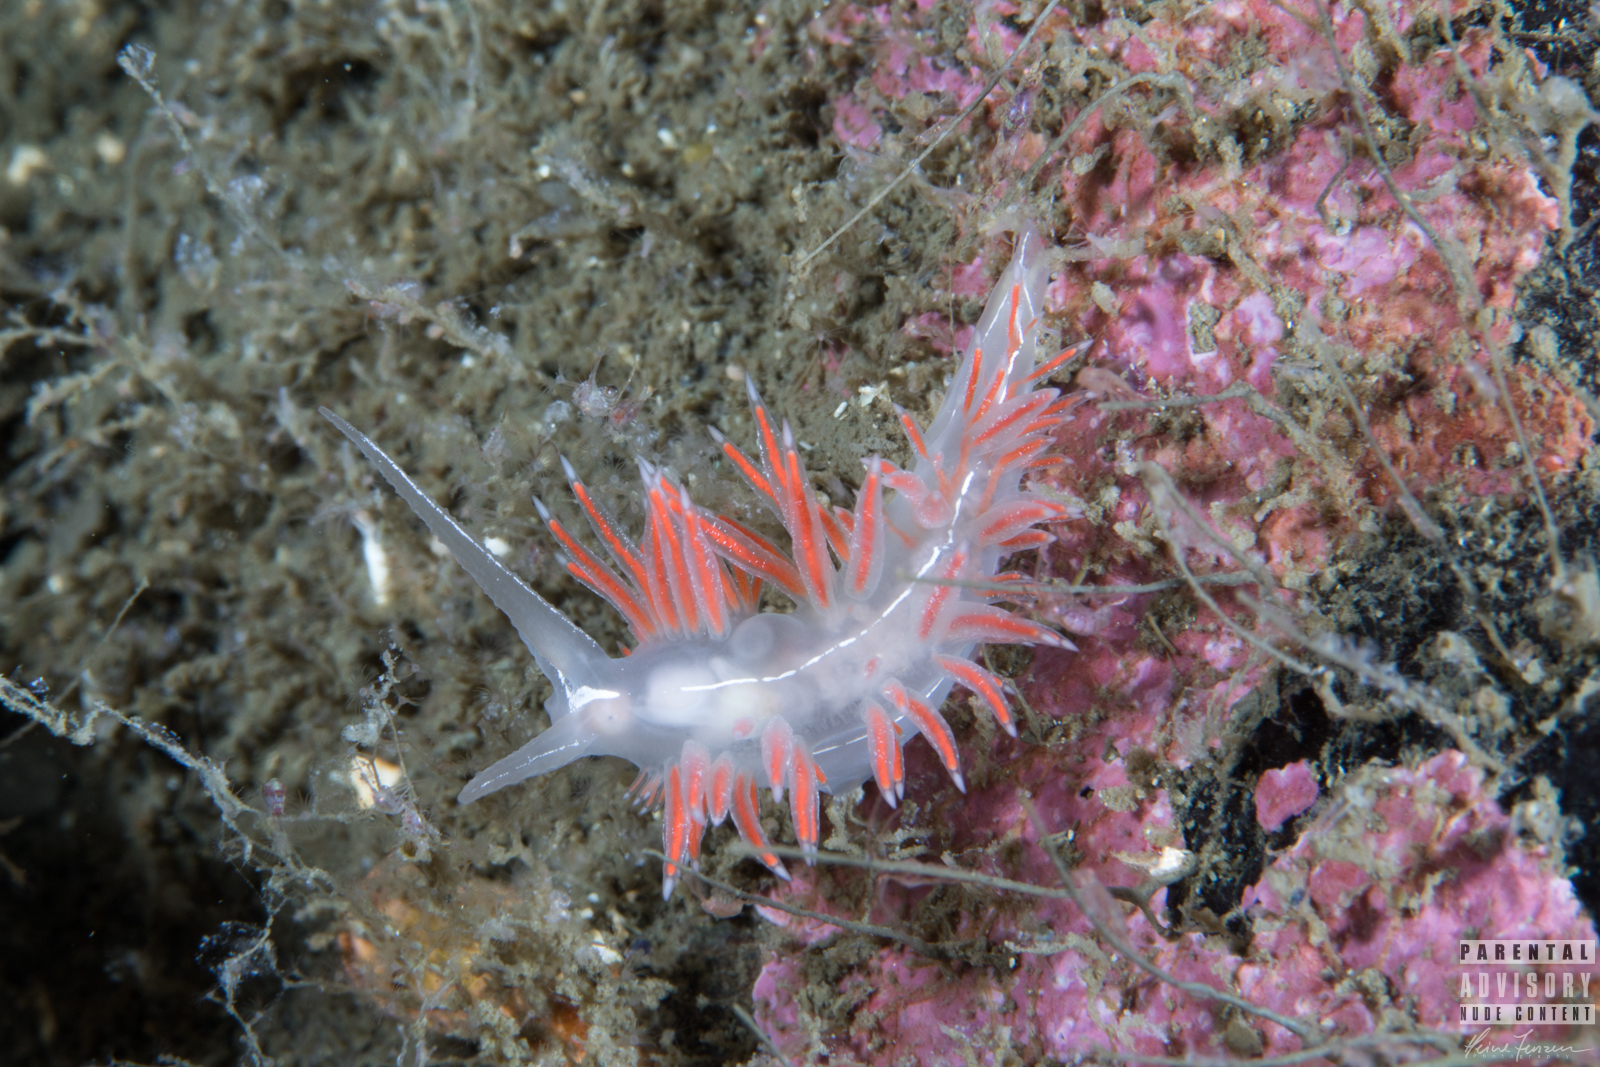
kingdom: Animalia
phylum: Mollusca
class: Gastropoda
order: Nudibranchia
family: Coryphellidae
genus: Coryphella
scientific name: Coryphella chriskaugei
